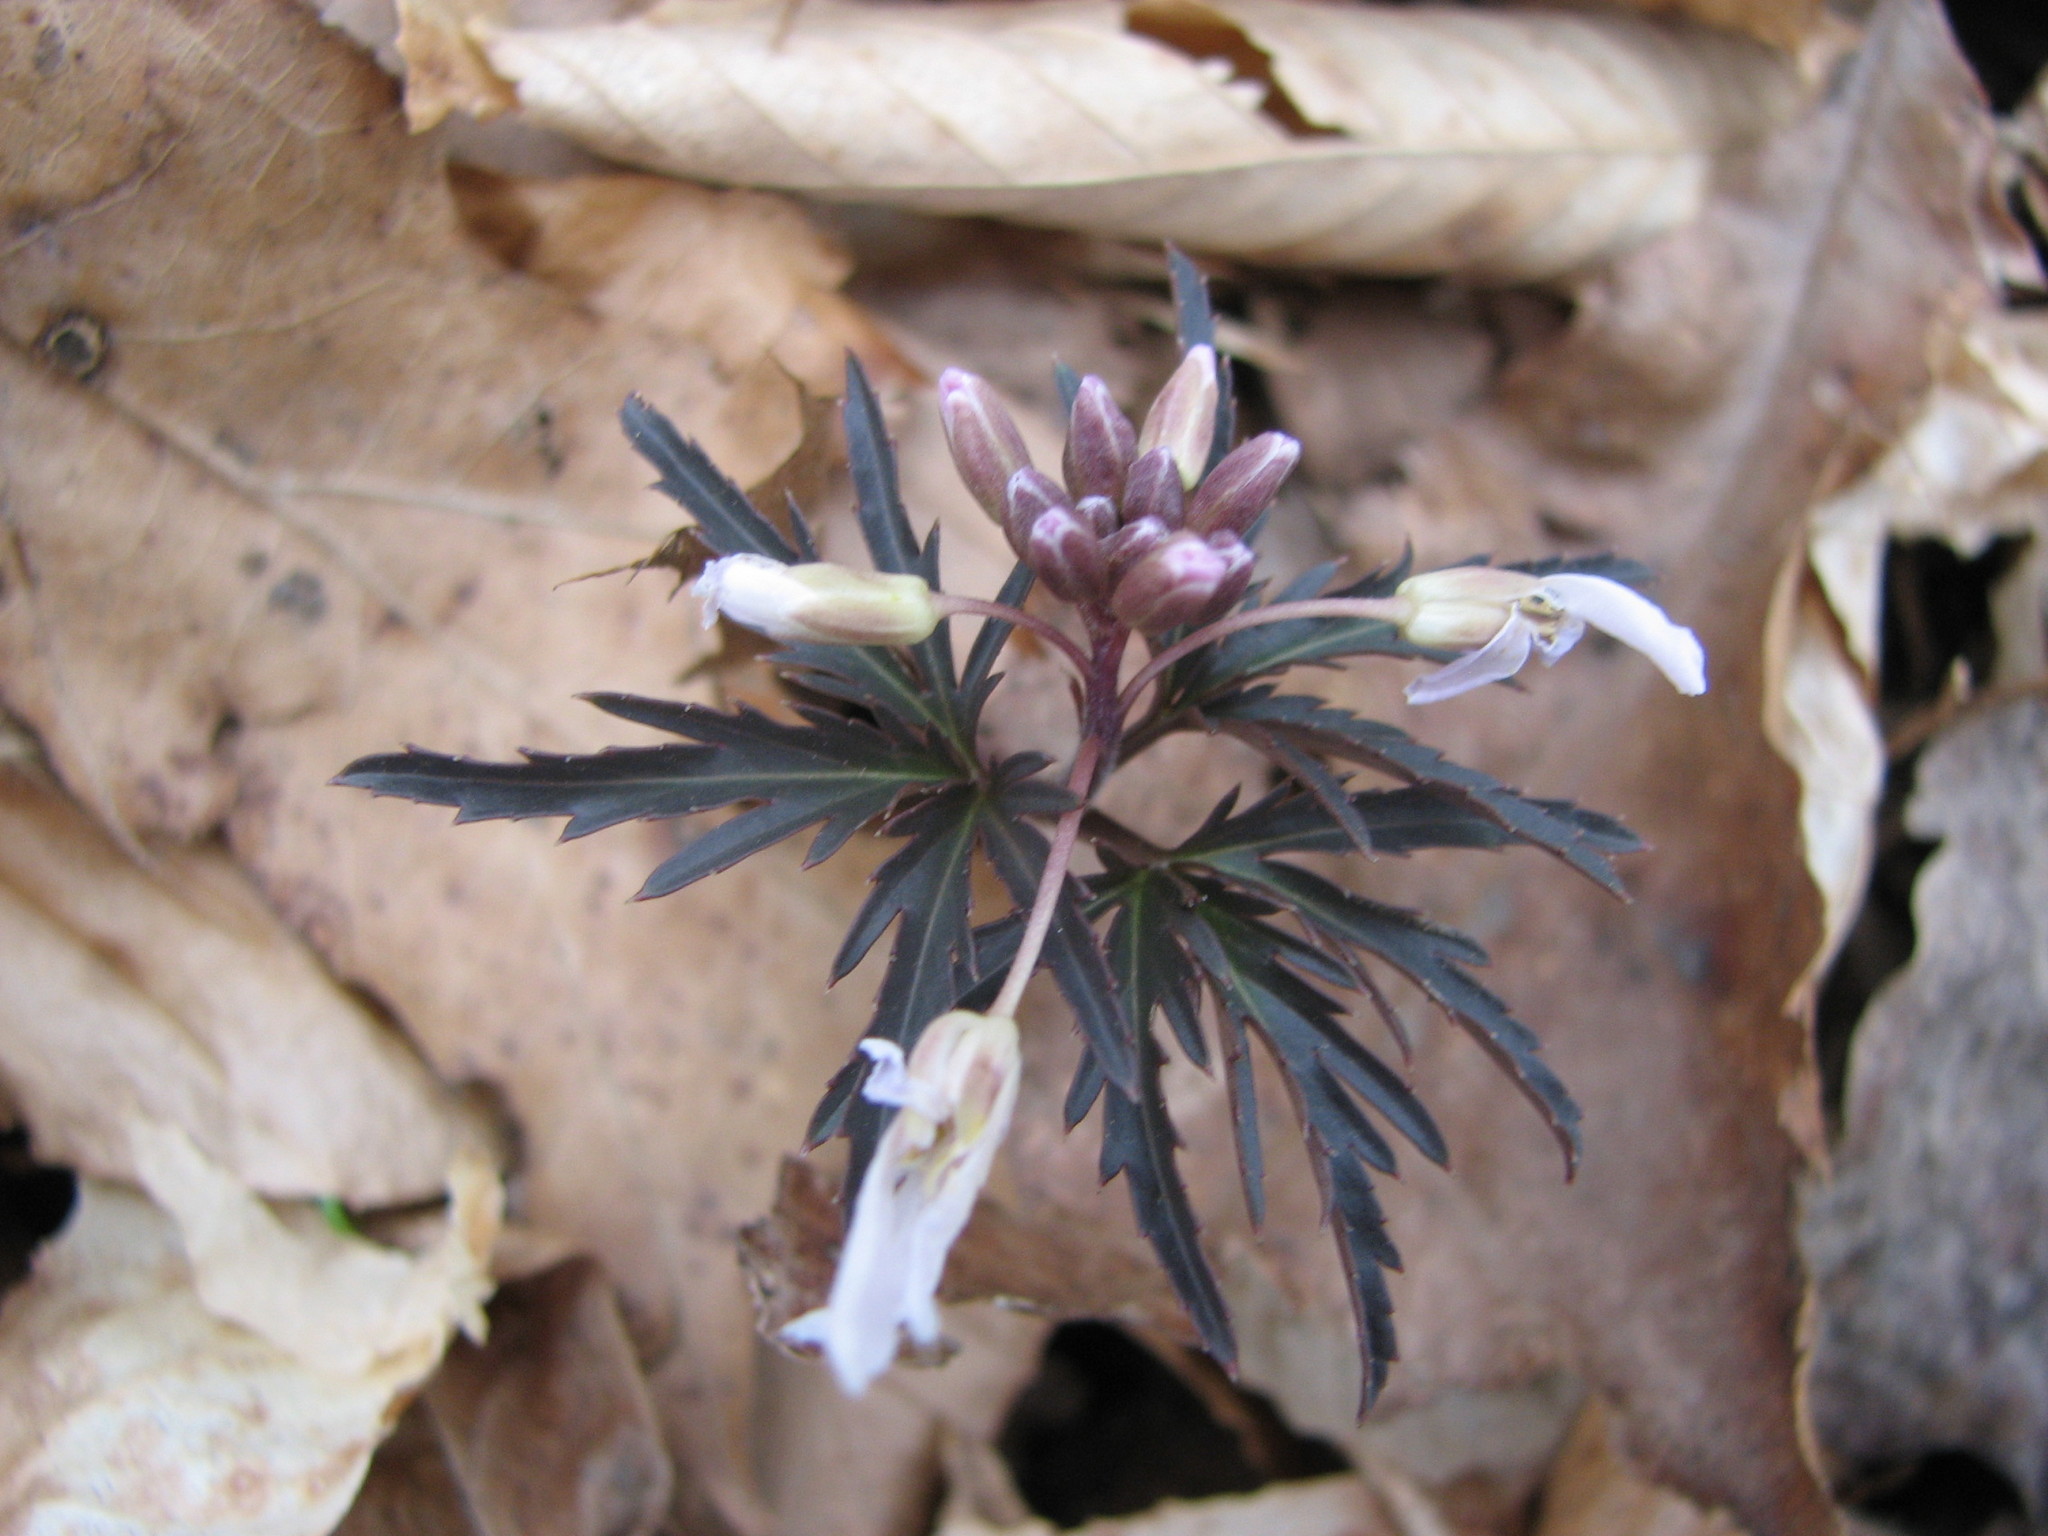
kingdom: Plantae
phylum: Tracheophyta
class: Magnoliopsida
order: Brassicales
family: Brassicaceae
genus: Cardamine
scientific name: Cardamine concatenata
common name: Cut-leaf toothcup
